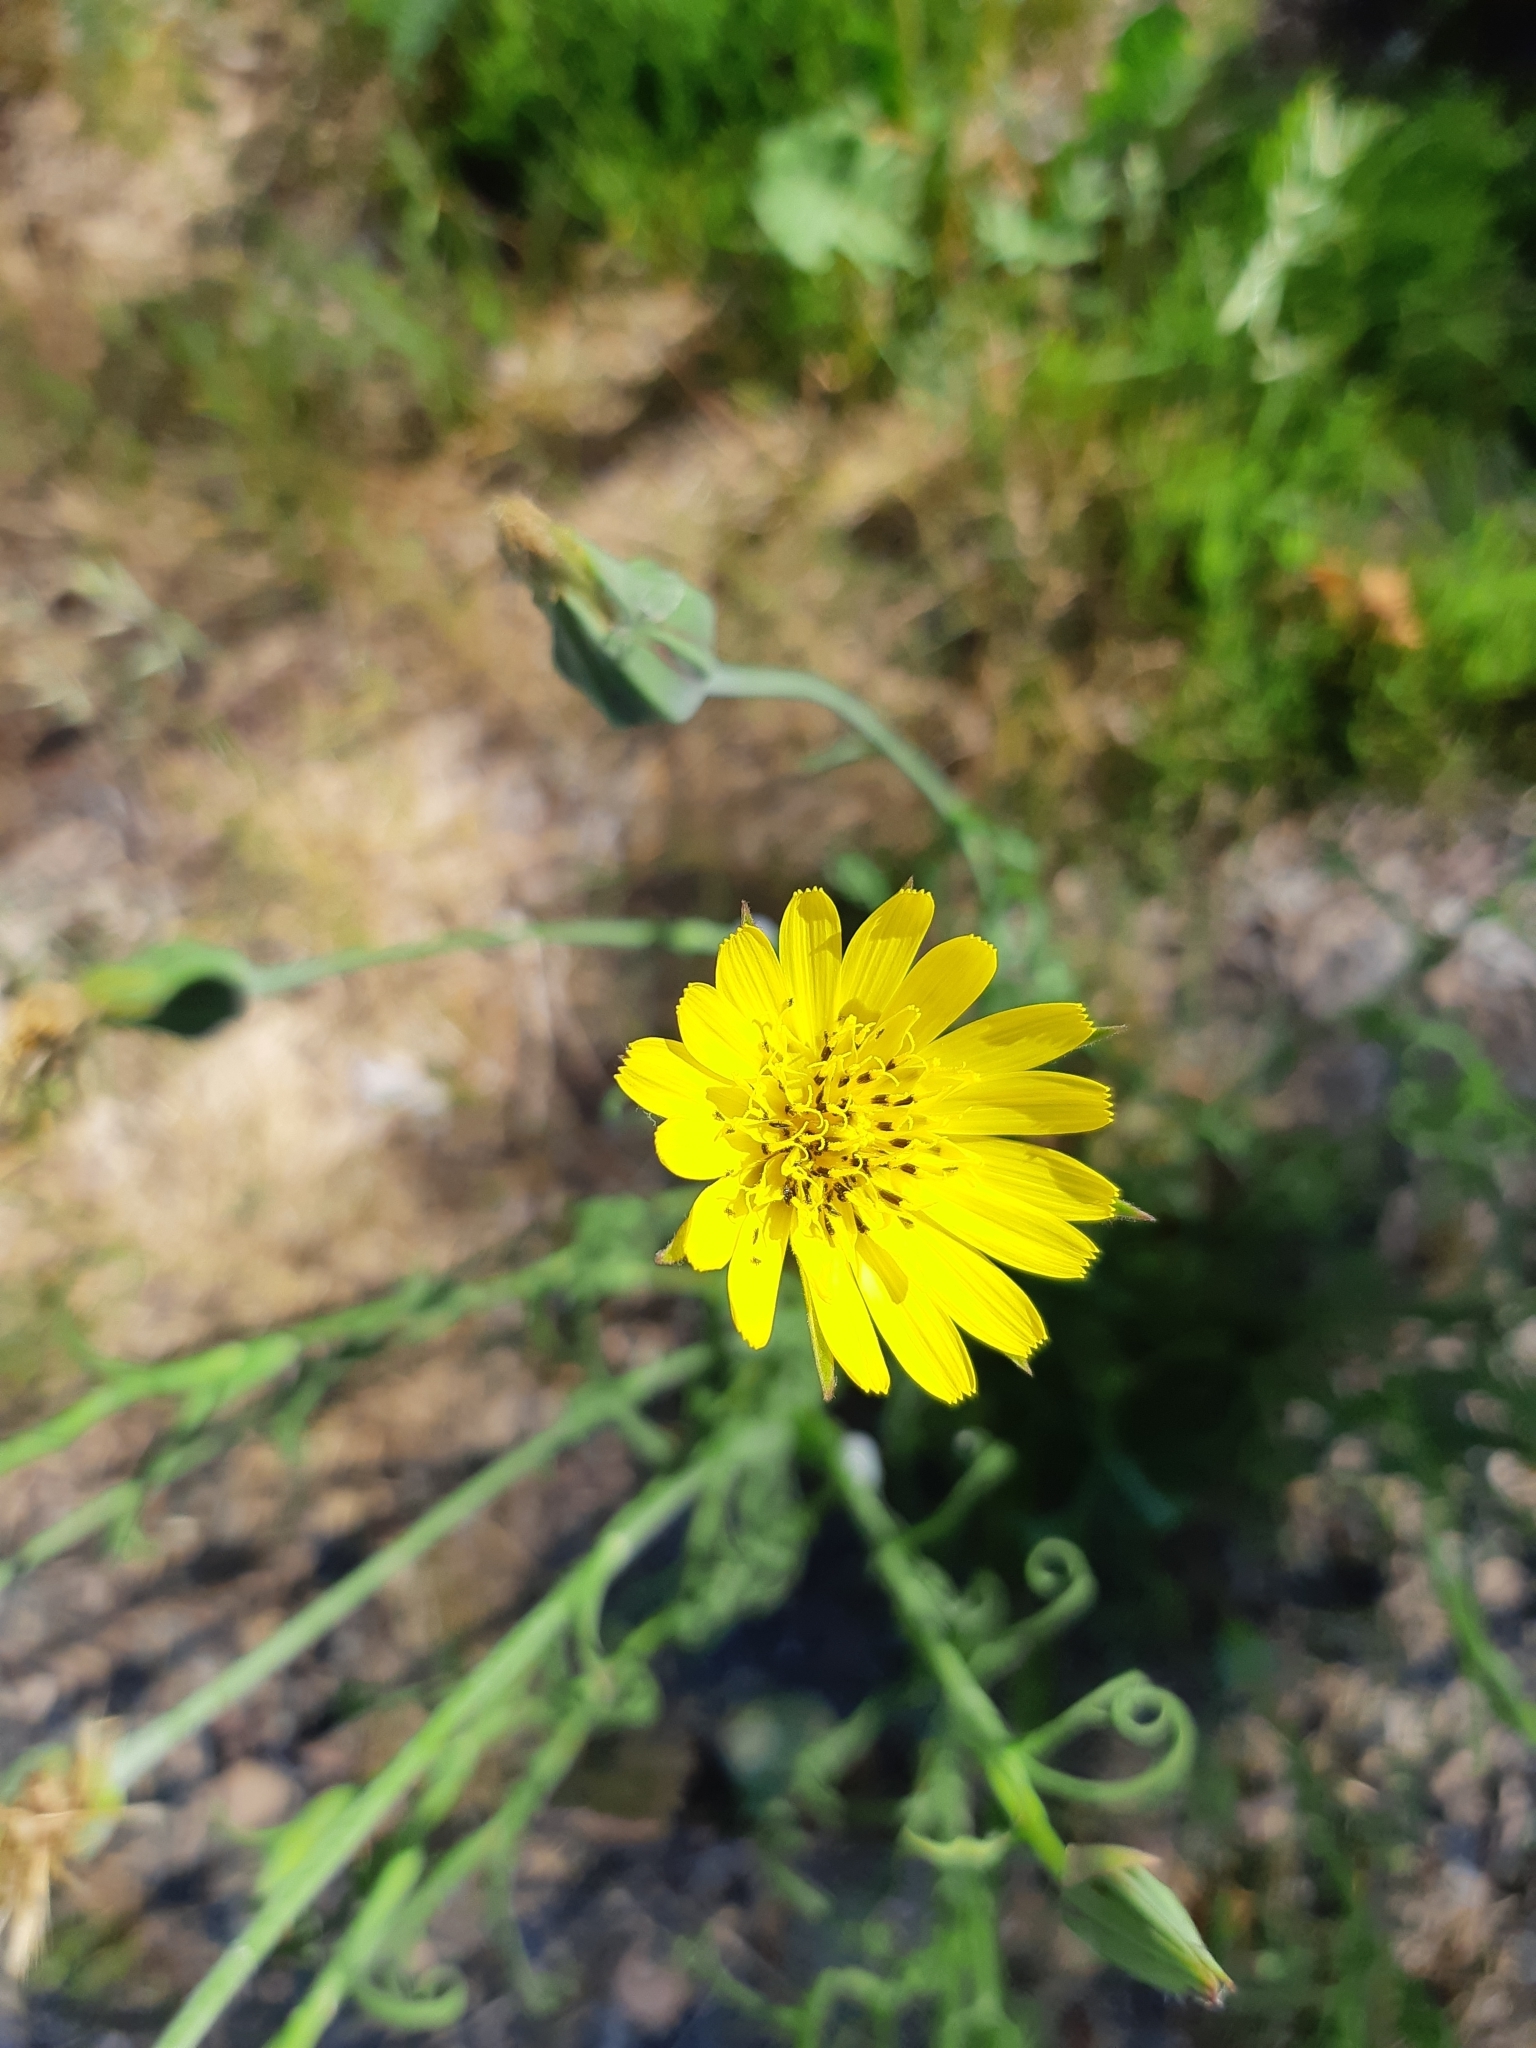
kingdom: Plantae
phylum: Tracheophyta
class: Magnoliopsida
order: Asterales
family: Asteraceae
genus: Tragopogon
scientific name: Tragopogon pratensis
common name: Goat's-beard
